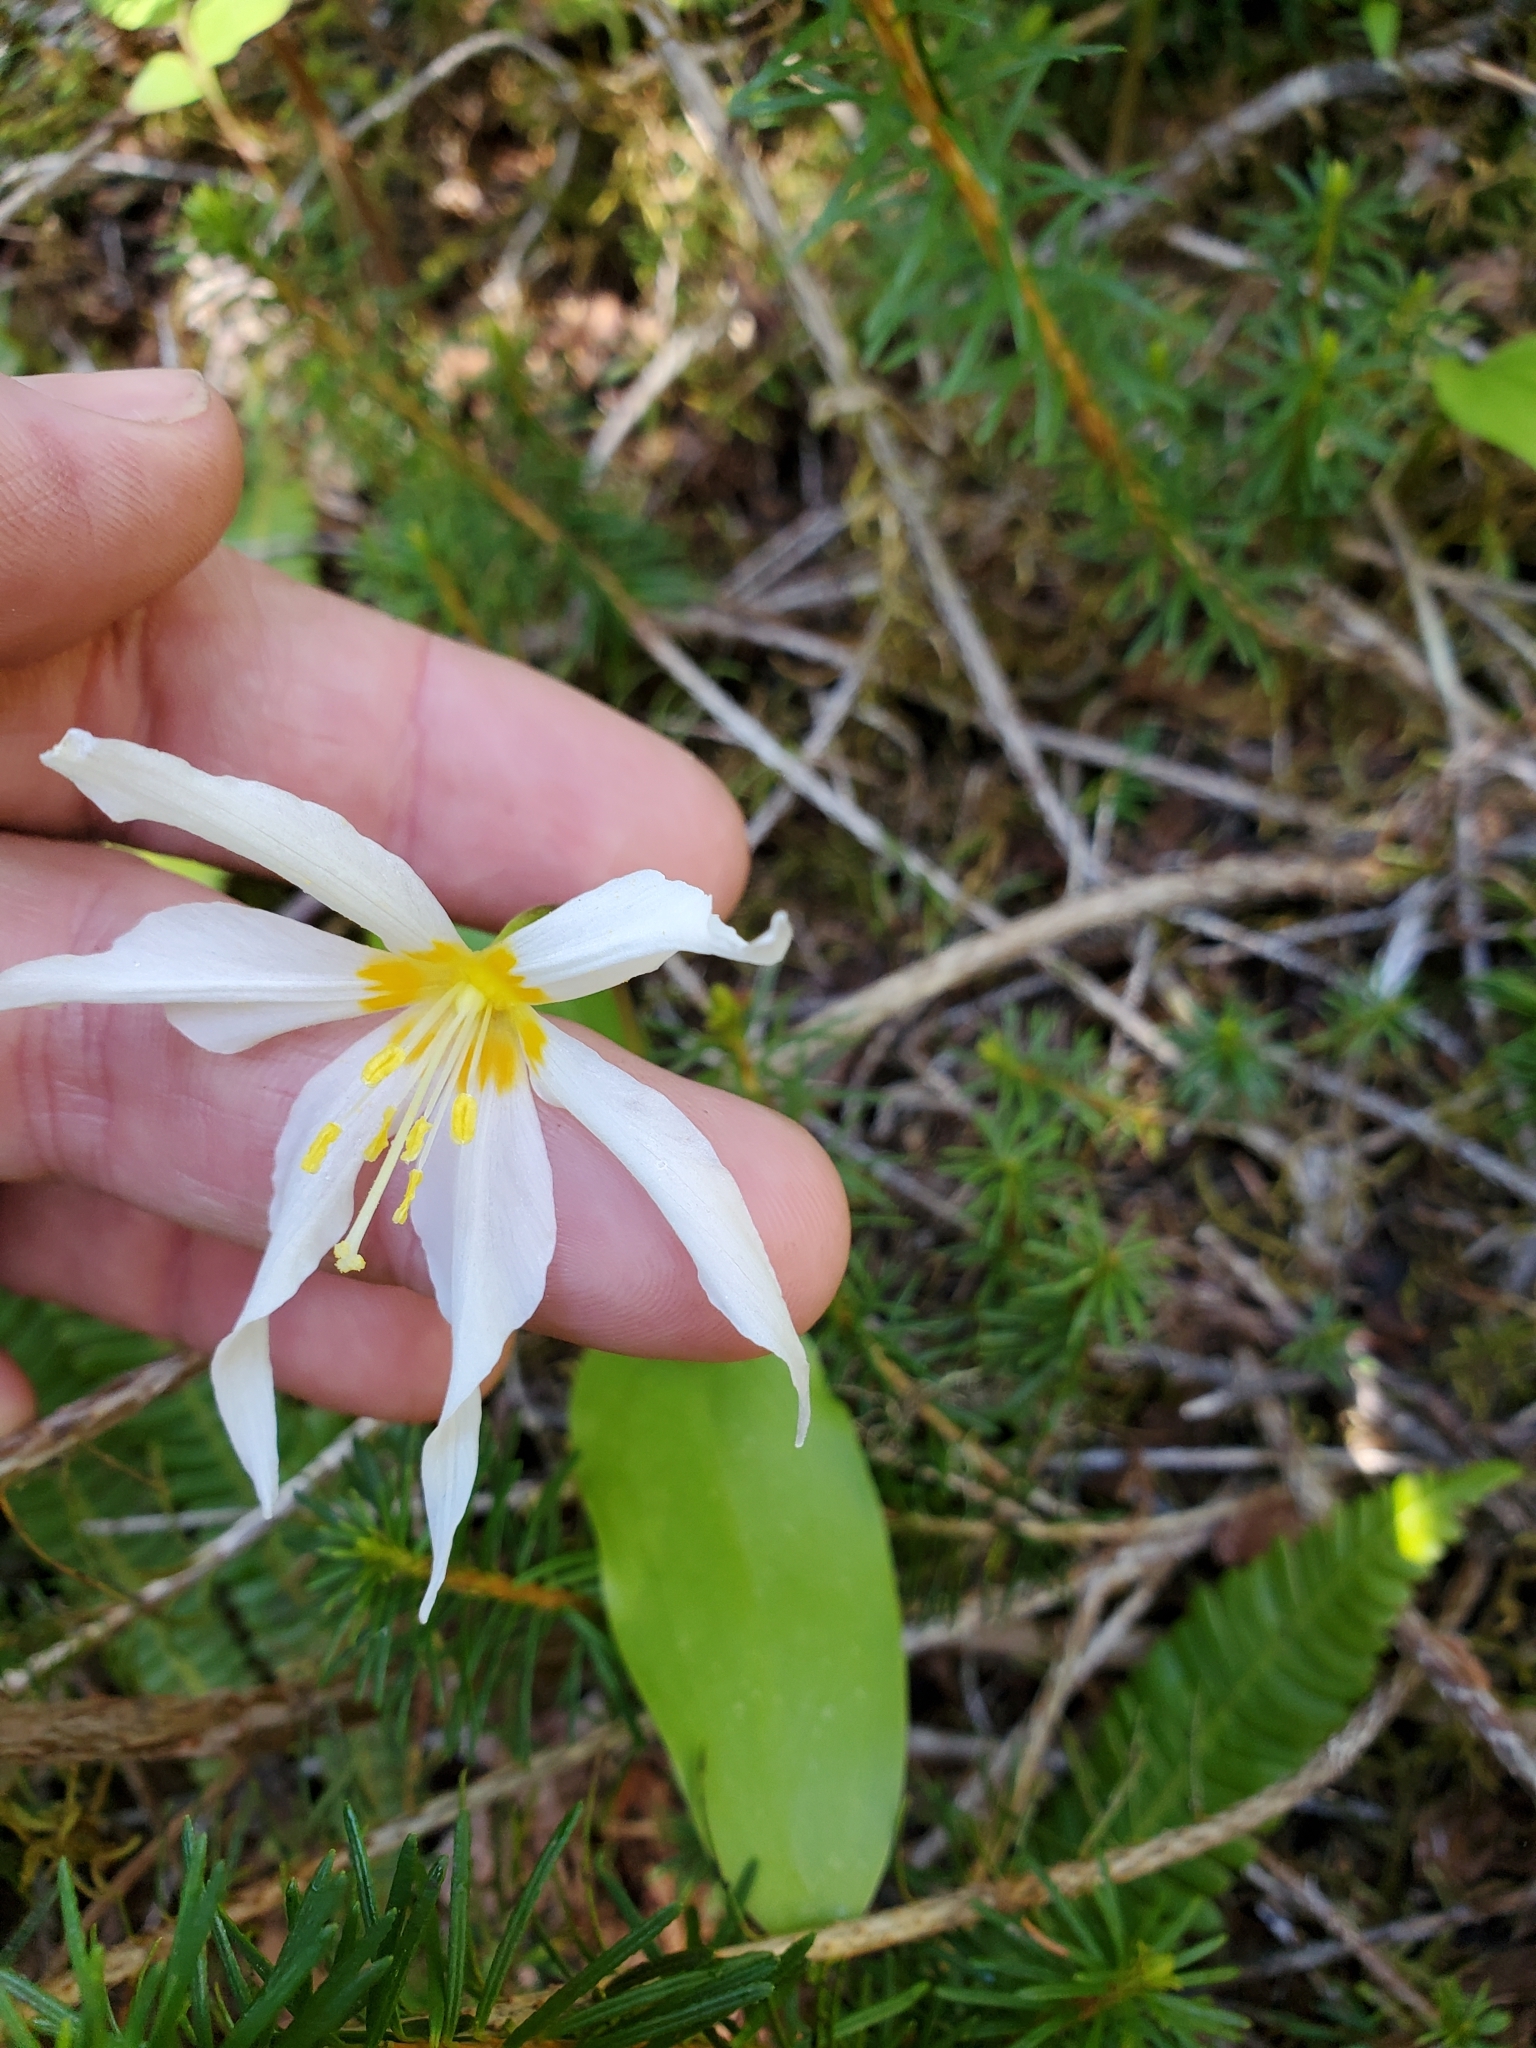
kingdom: Plantae
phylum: Tracheophyta
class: Liliopsida
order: Liliales
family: Liliaceae
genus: Erythronium
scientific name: Erythronium montanum
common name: Avalanche lily
